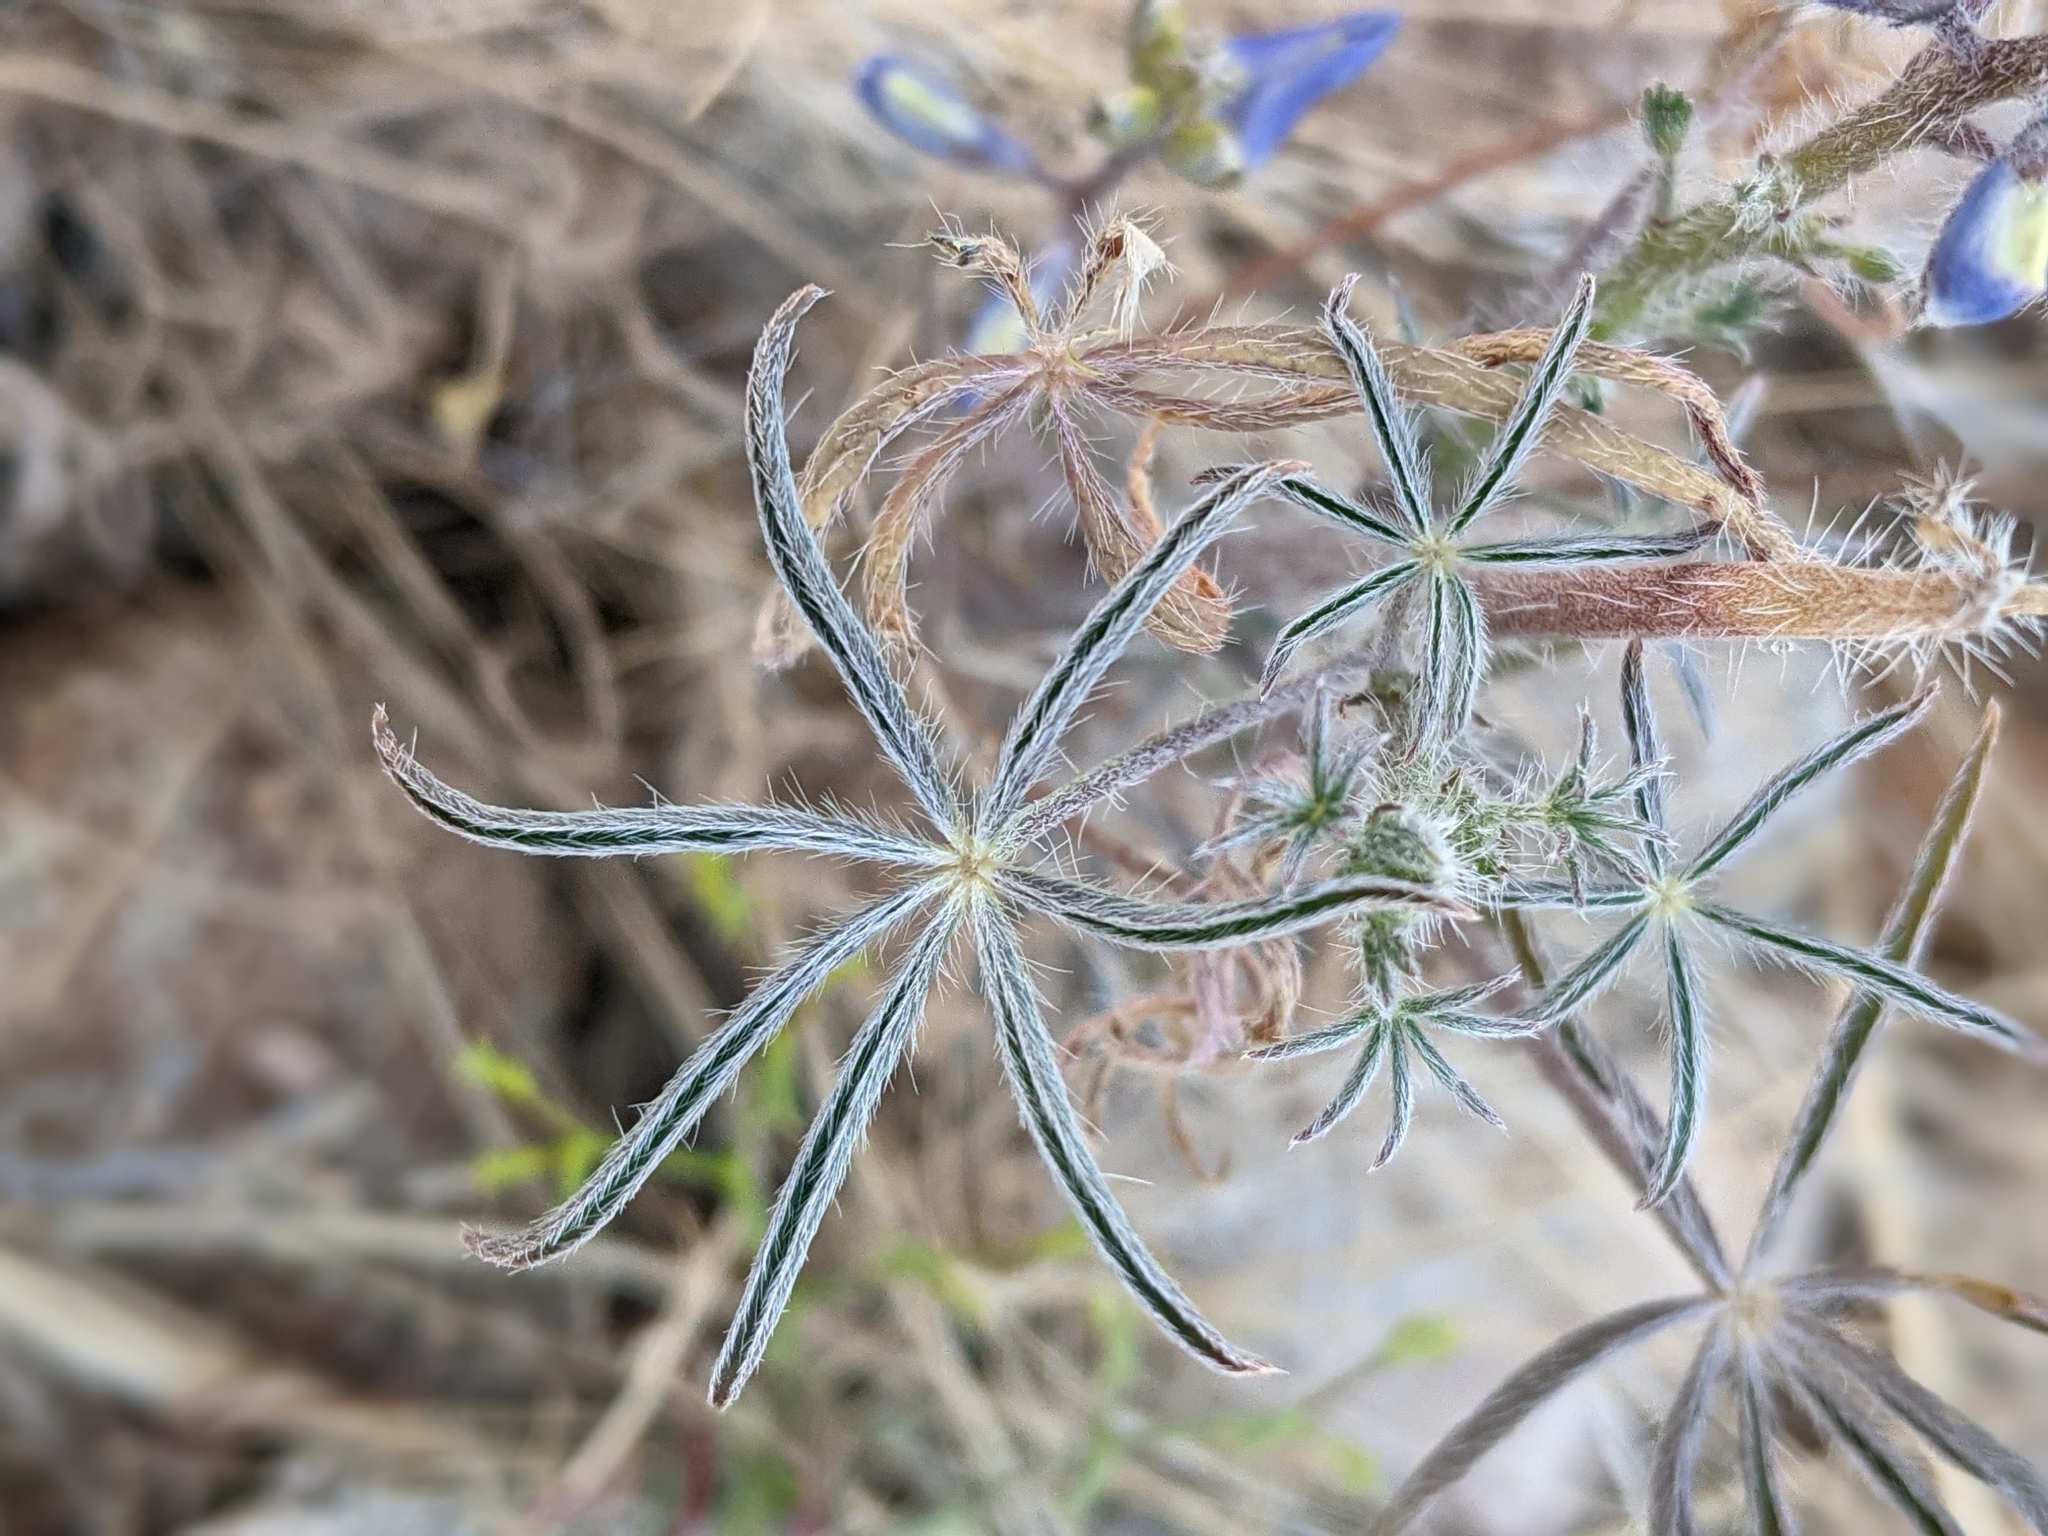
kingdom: Plantae
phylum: Tracheophyta
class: Magnoliopsida
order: Fabales
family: Fabaceae
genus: Lupinus
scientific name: Lupinus sparsiflorus
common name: Coulter's lupine
